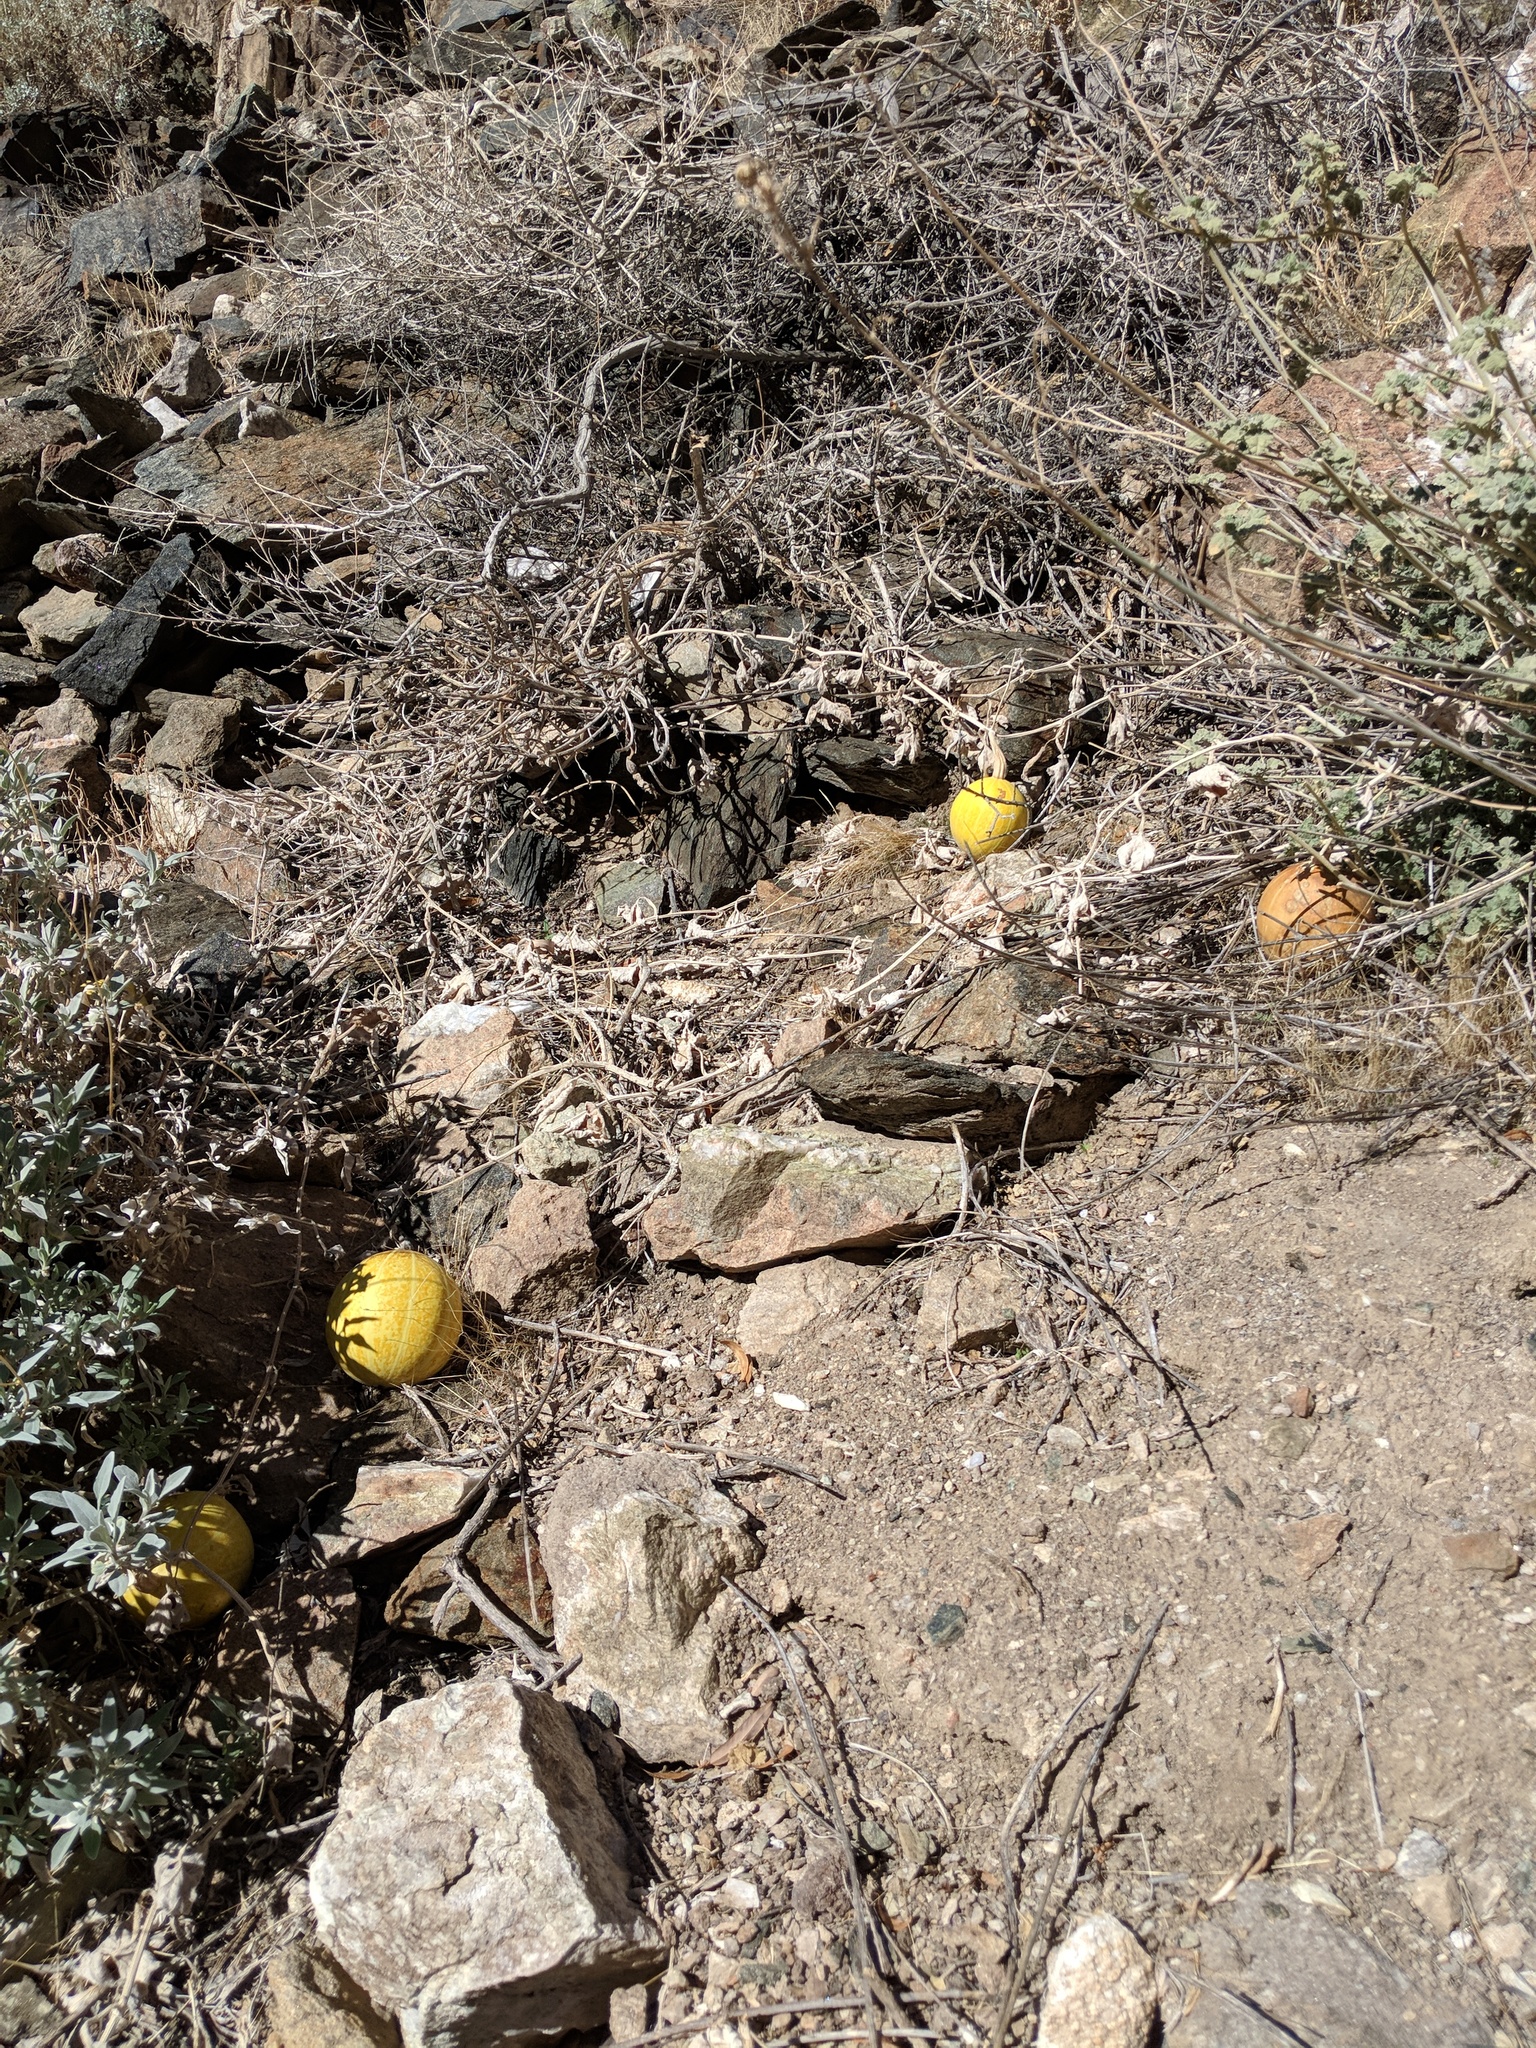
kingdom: Plantae
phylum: Tracheophyta
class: Magnoliopsida
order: Cucurbitales
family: Cucurbitaceae
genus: Cucurbita
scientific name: Cucurbita palmata
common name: Coyote-melon
